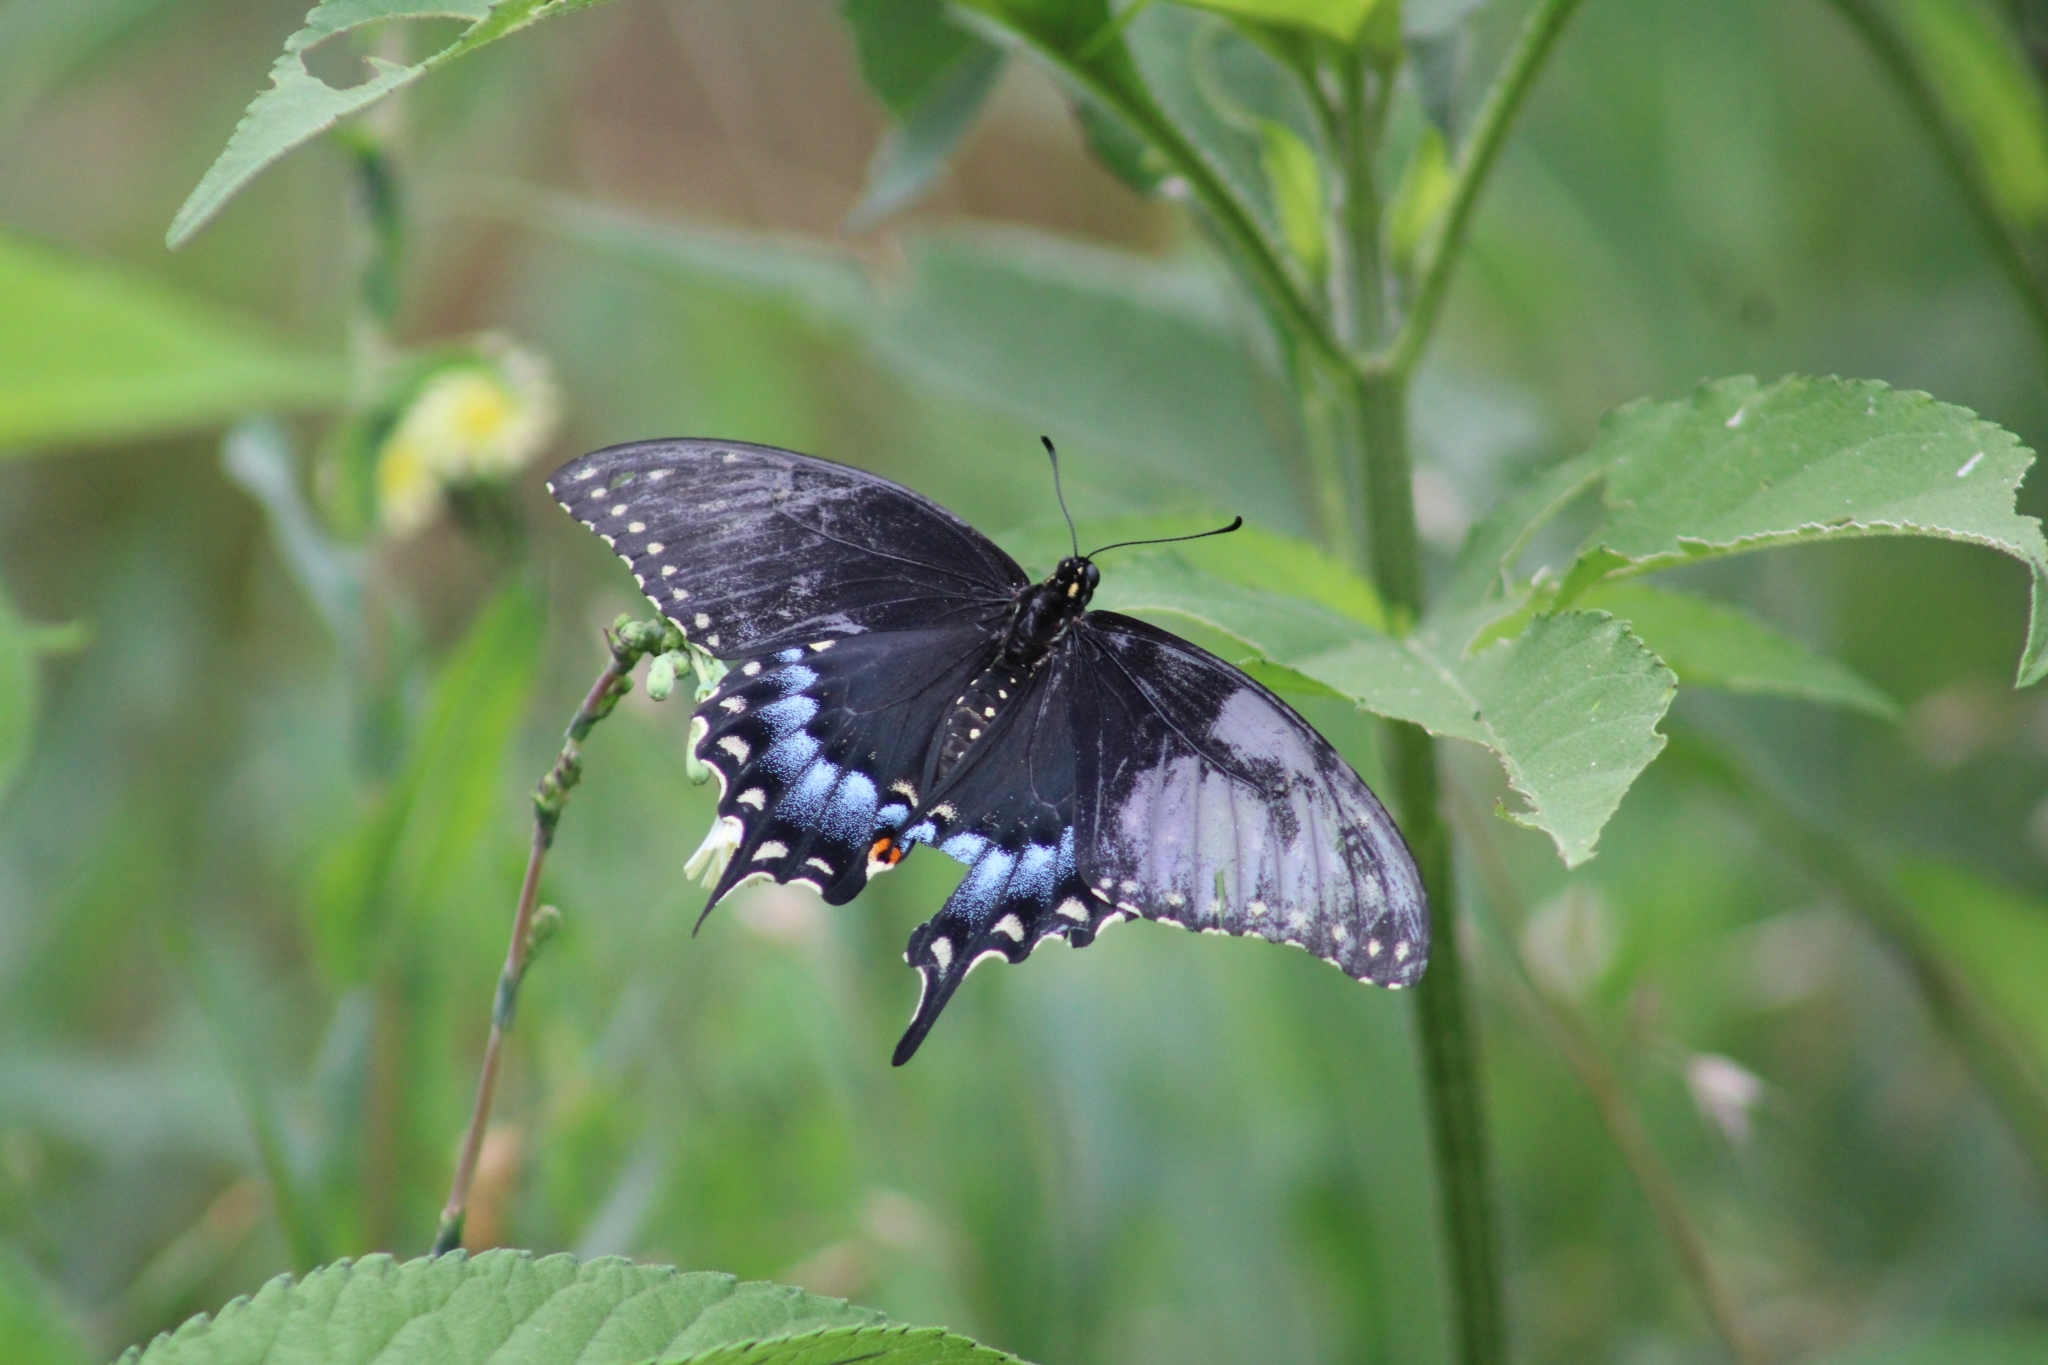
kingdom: Animalia
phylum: Arthropoda
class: Insecta
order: Lepidoptera
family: Papilionidae
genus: Papilio
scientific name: Papilio polyxenes
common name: Black swallowtail
